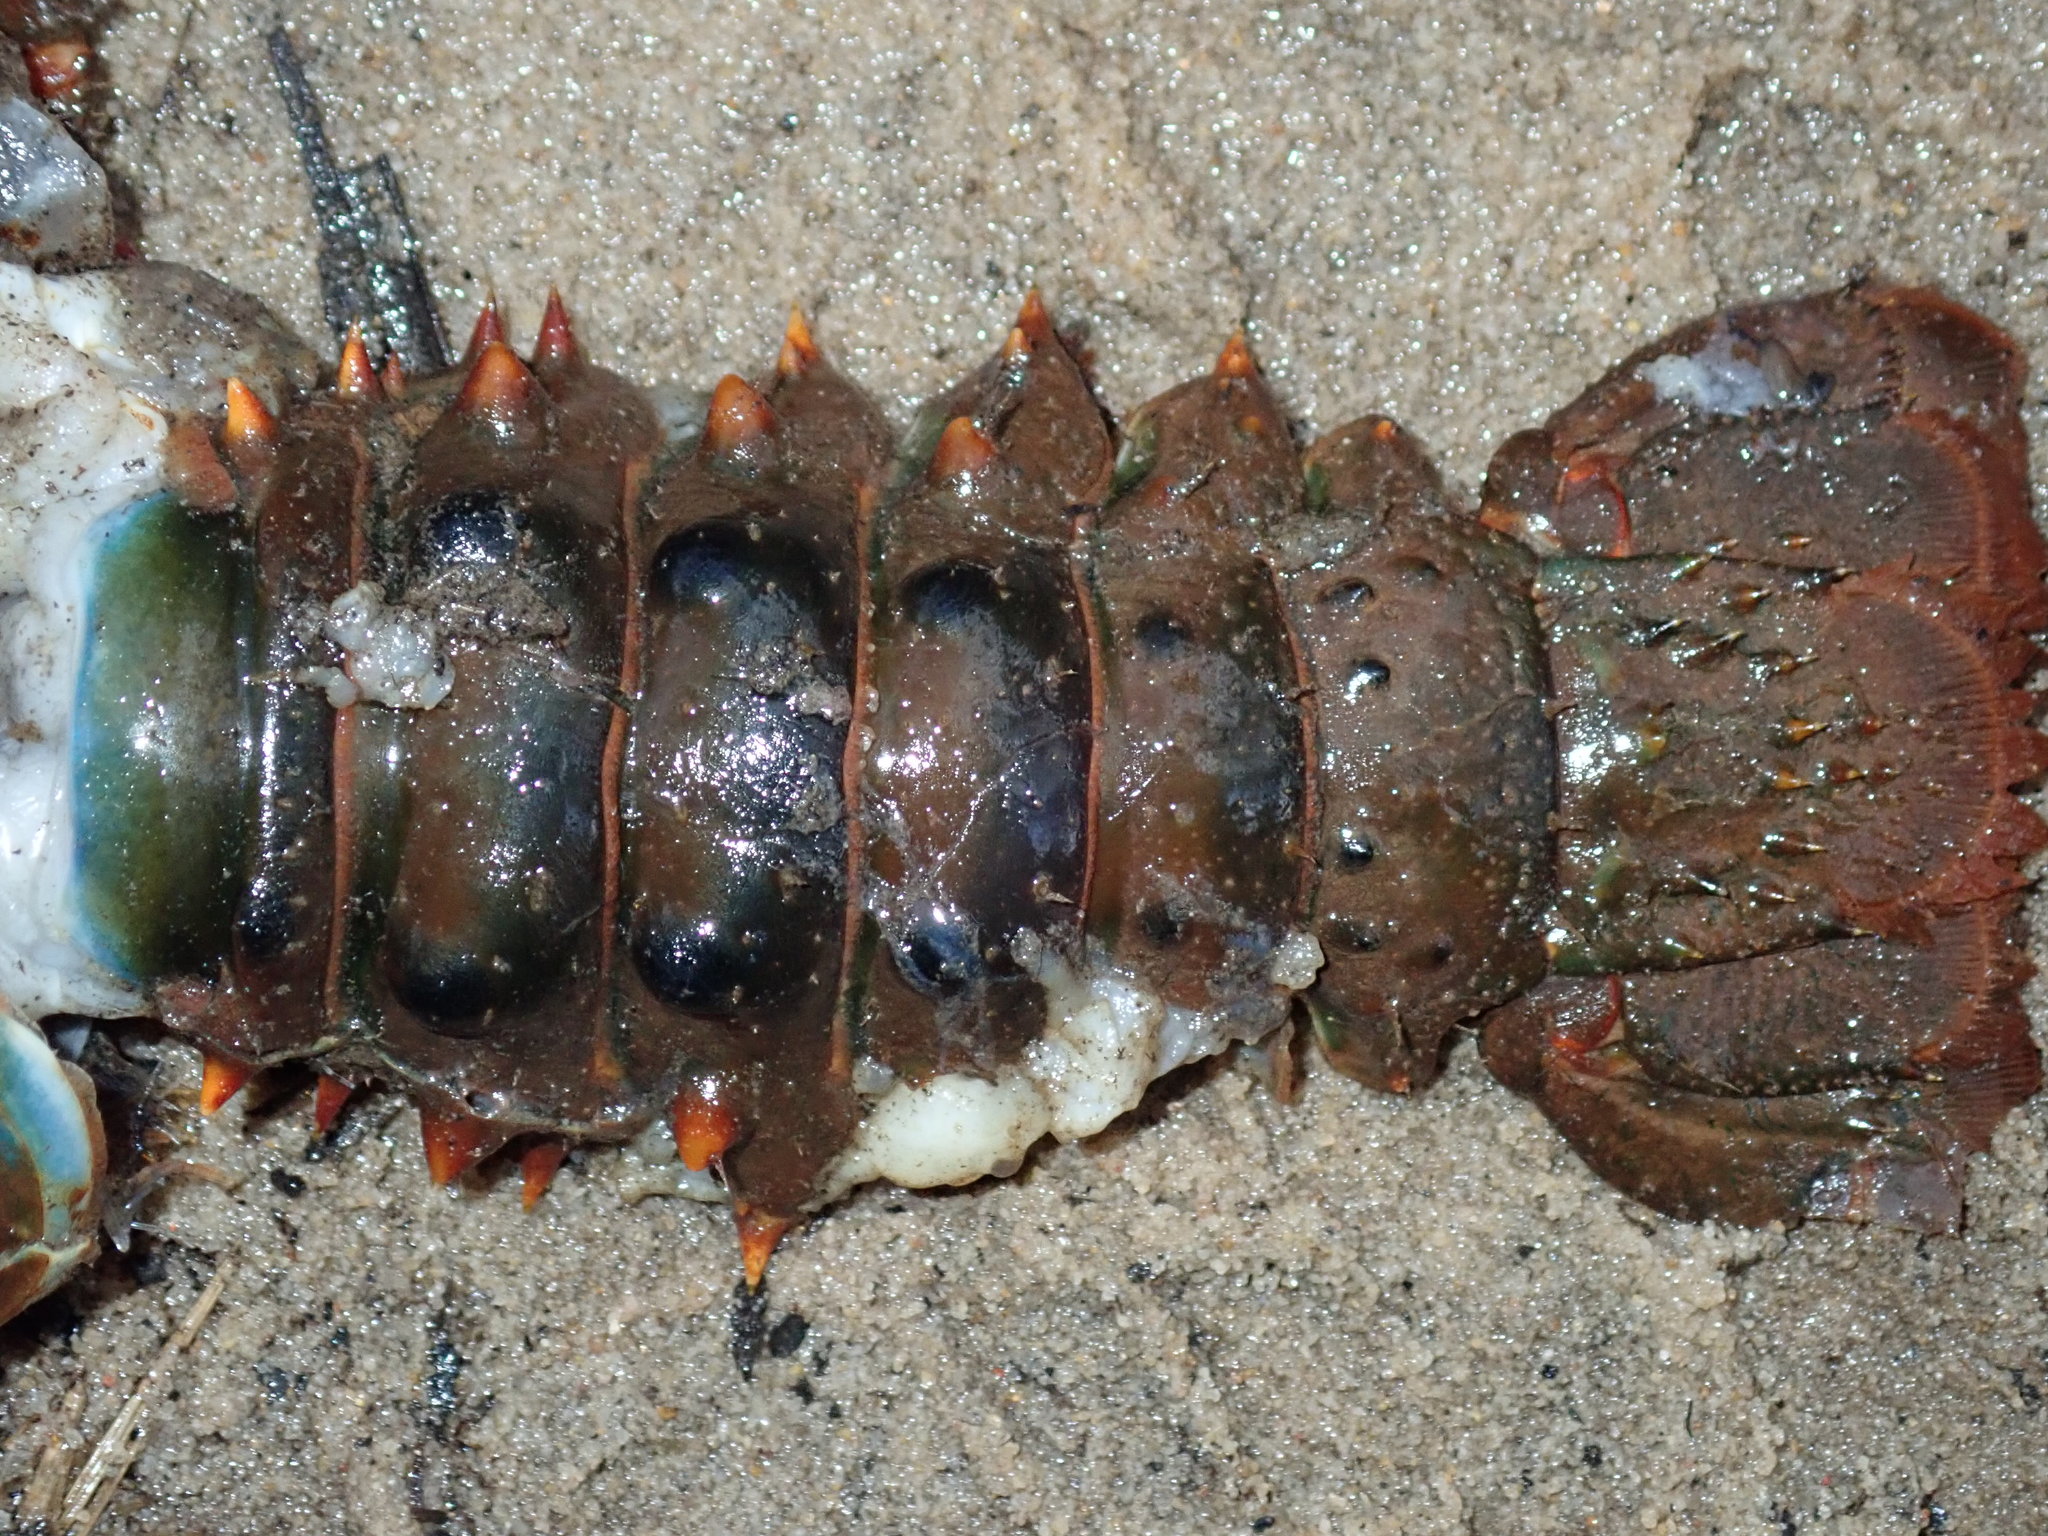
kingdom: Animalia
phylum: Arthropoda
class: Malacostraca
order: Decapoda
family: Parastacidae
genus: Euastacus
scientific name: Euastacus spinifer
